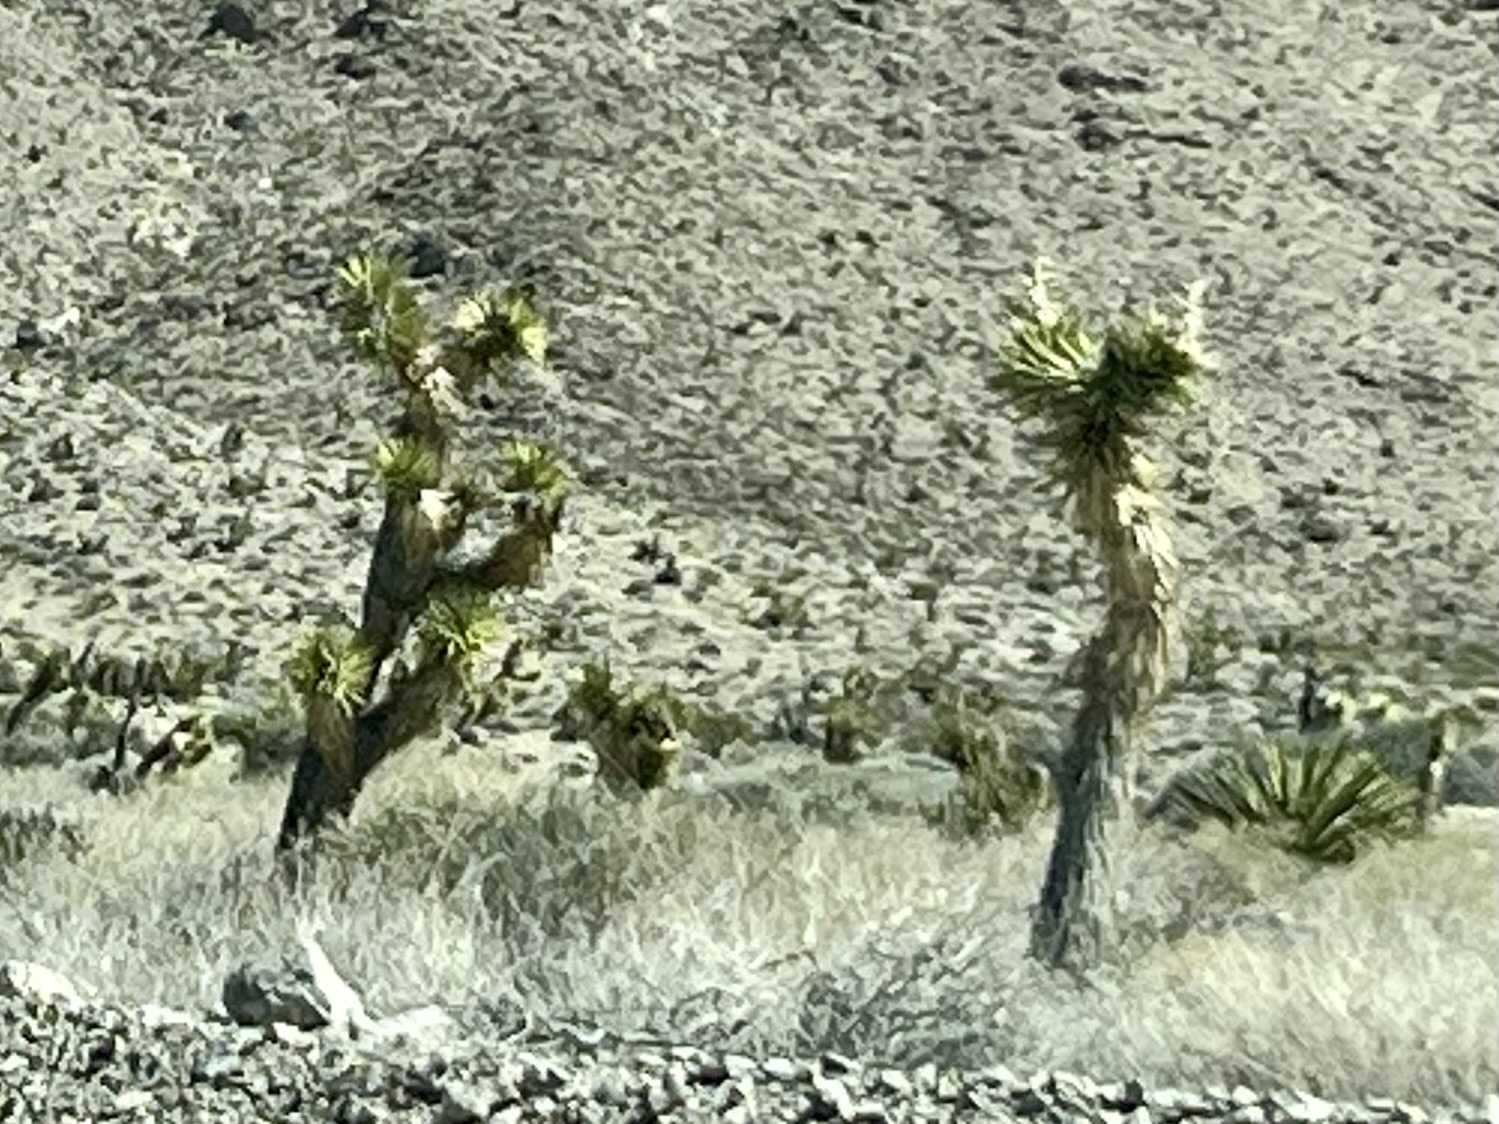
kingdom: Plantae
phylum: Tracheophyta
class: Liliopsida
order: Asparagales
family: Asparagaceae
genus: Yucca
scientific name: Yucca brevifolia
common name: Joshua tree
